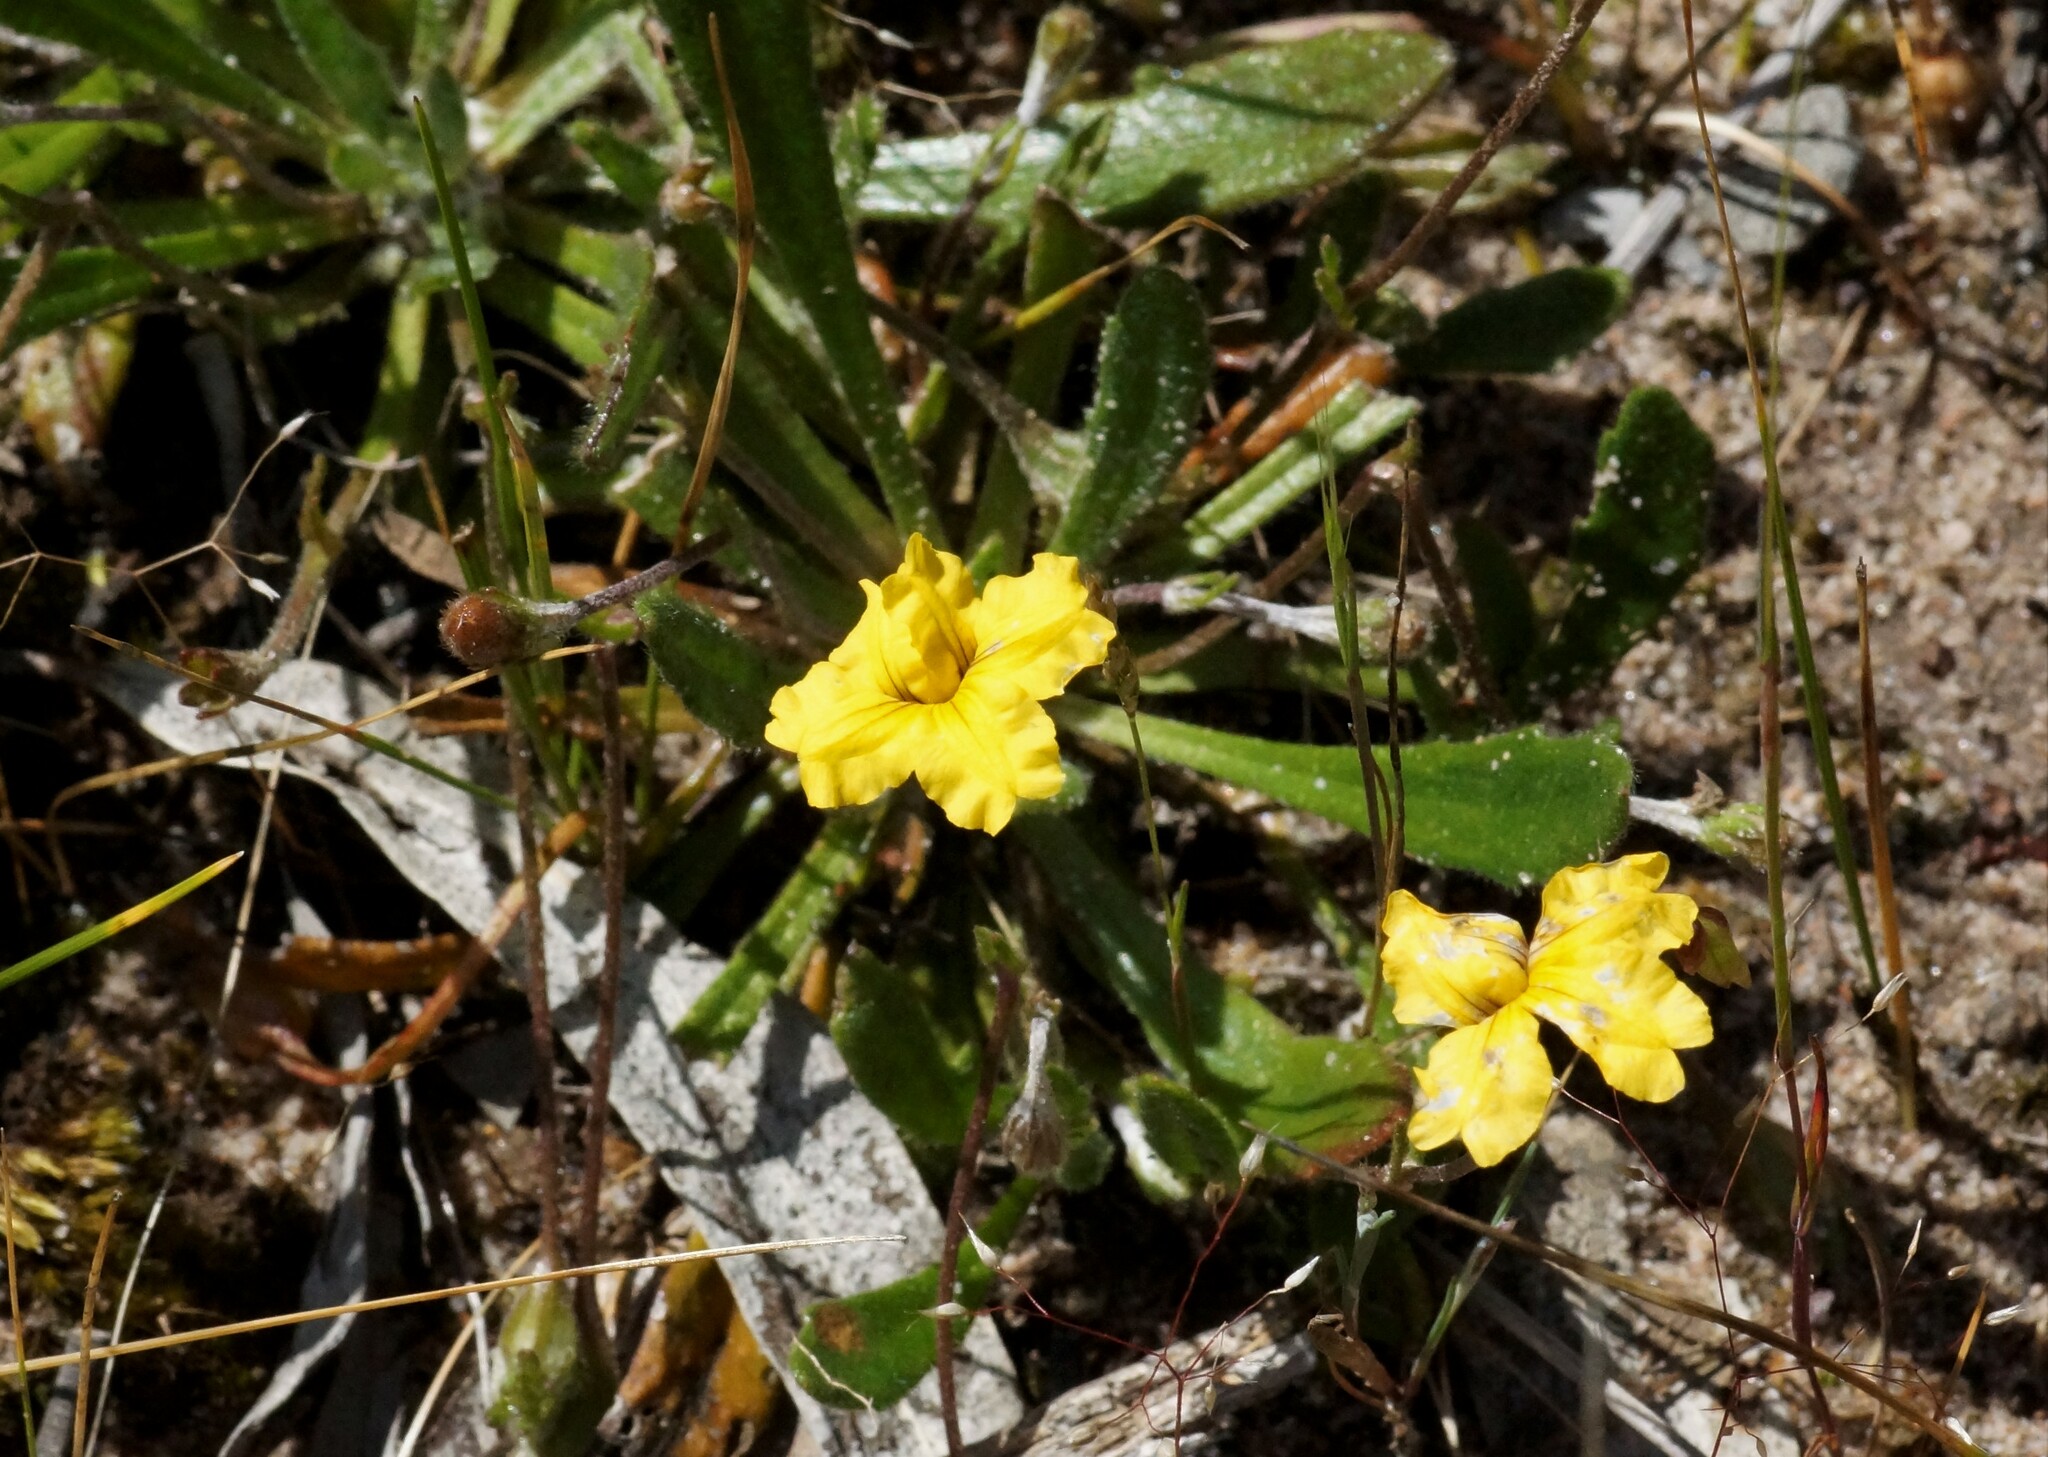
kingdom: Plantae
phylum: Tracheophyta
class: Magnoliopsida
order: Asterales
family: Goodeniaceae
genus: Goodenia
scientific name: Goodenia geniculata
